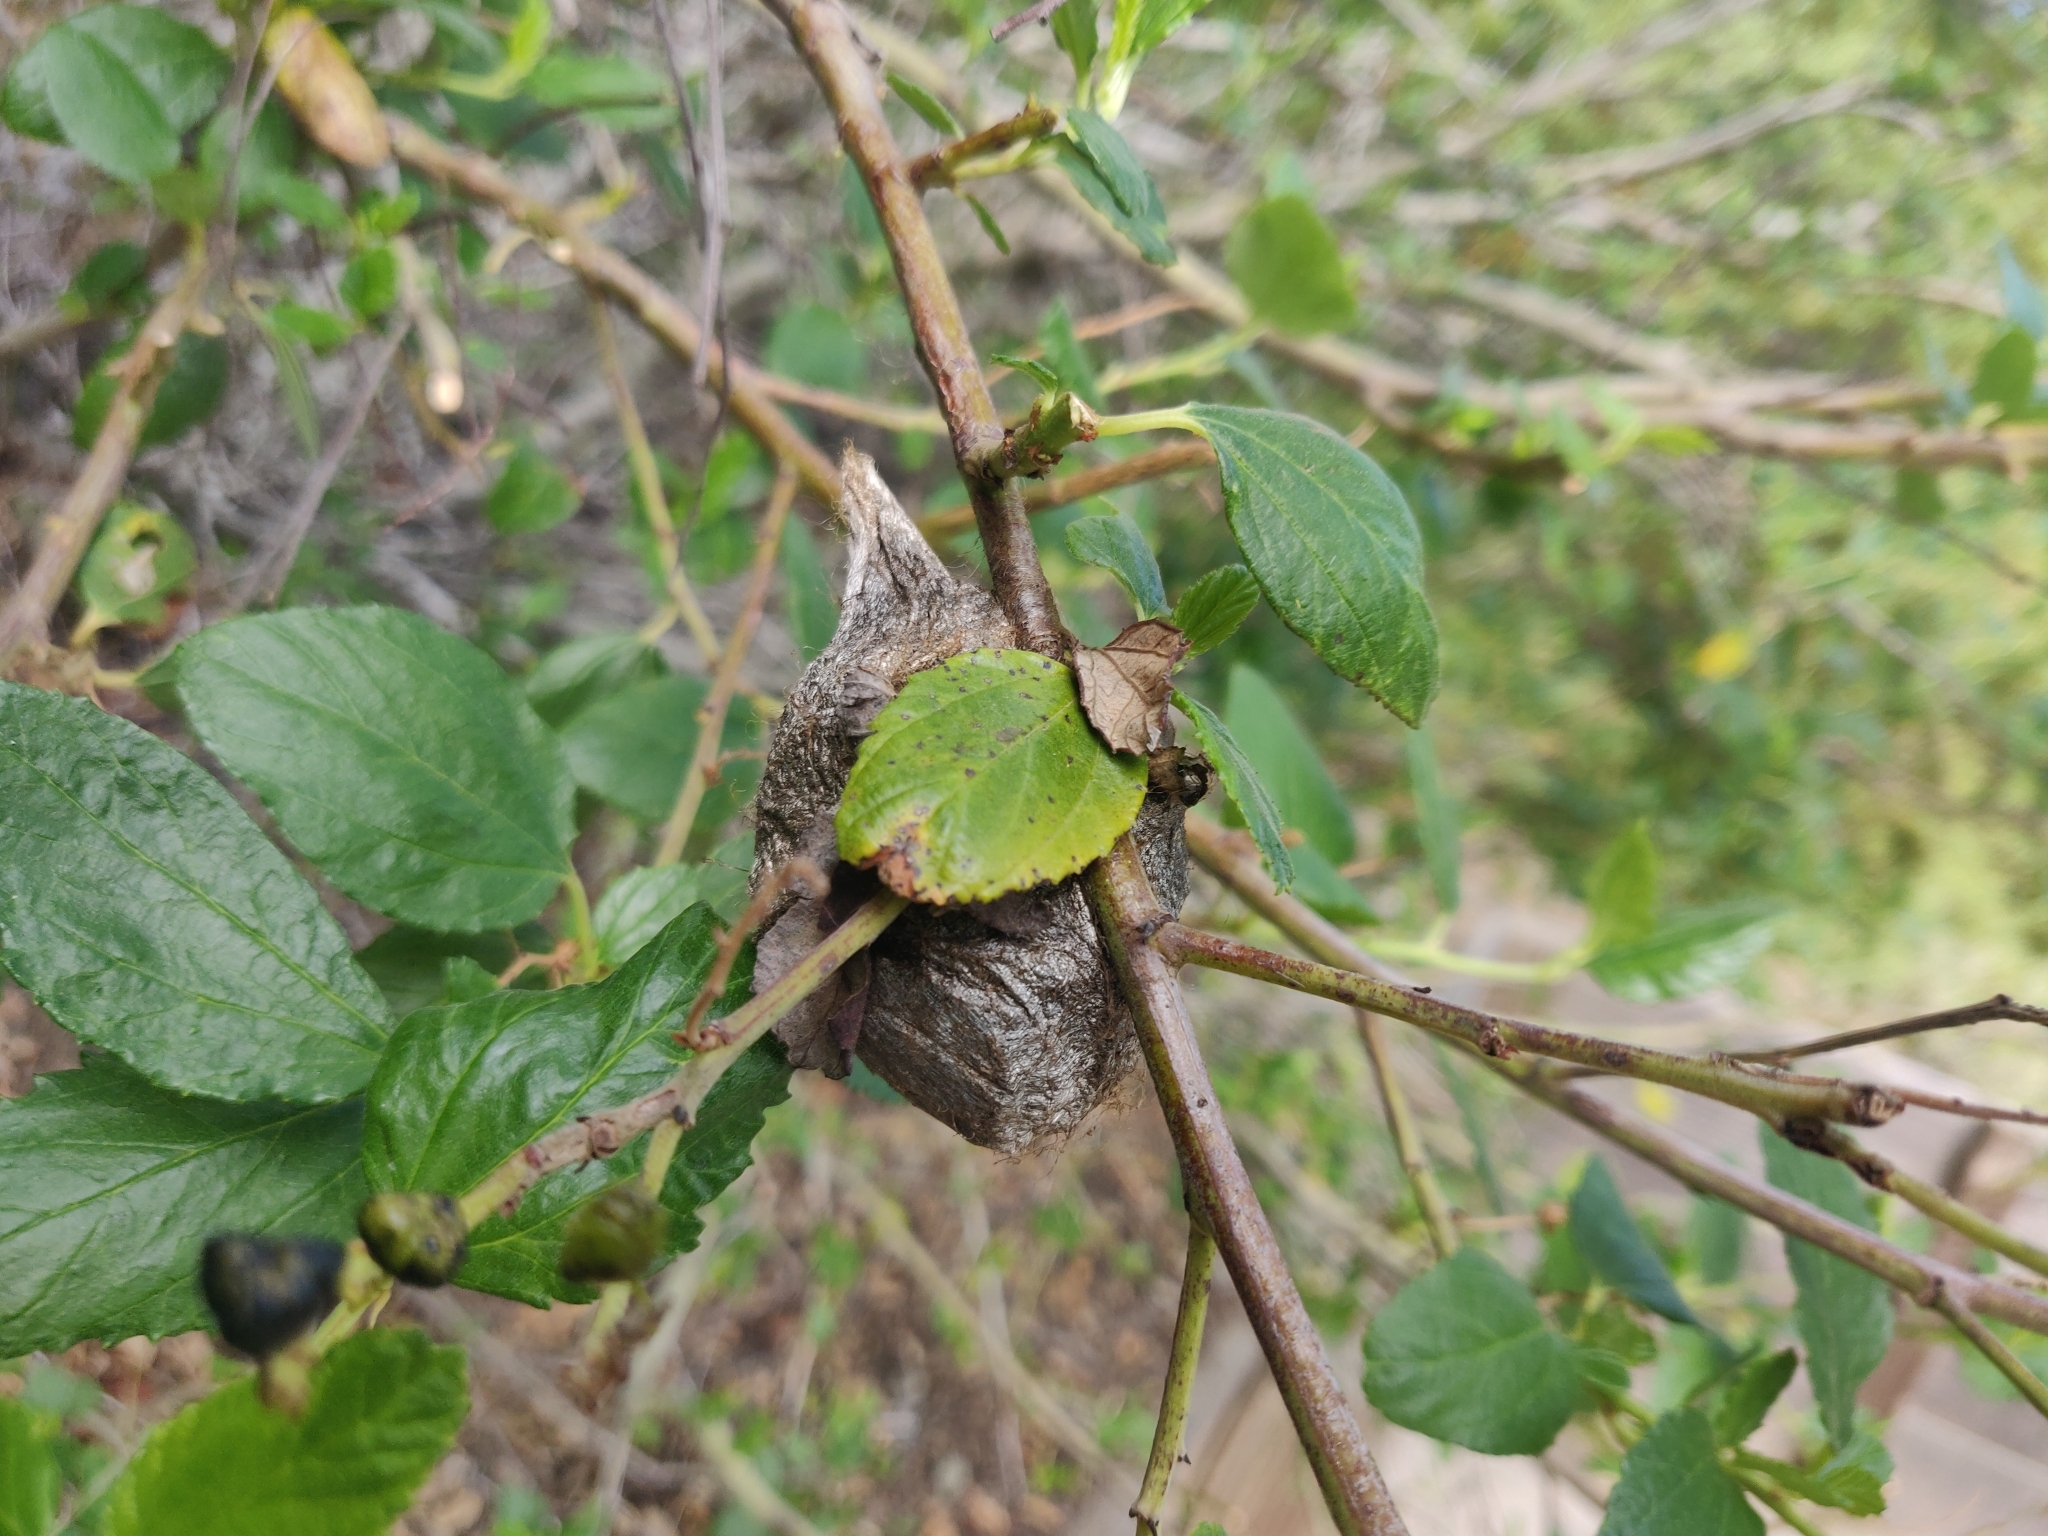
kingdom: Animalia
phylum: Arthropoda
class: Insecta
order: Lepidoptera
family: Saturniidae
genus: Hyalophora
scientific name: Hyalophora euryalus
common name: Ceanothus silkmoth
